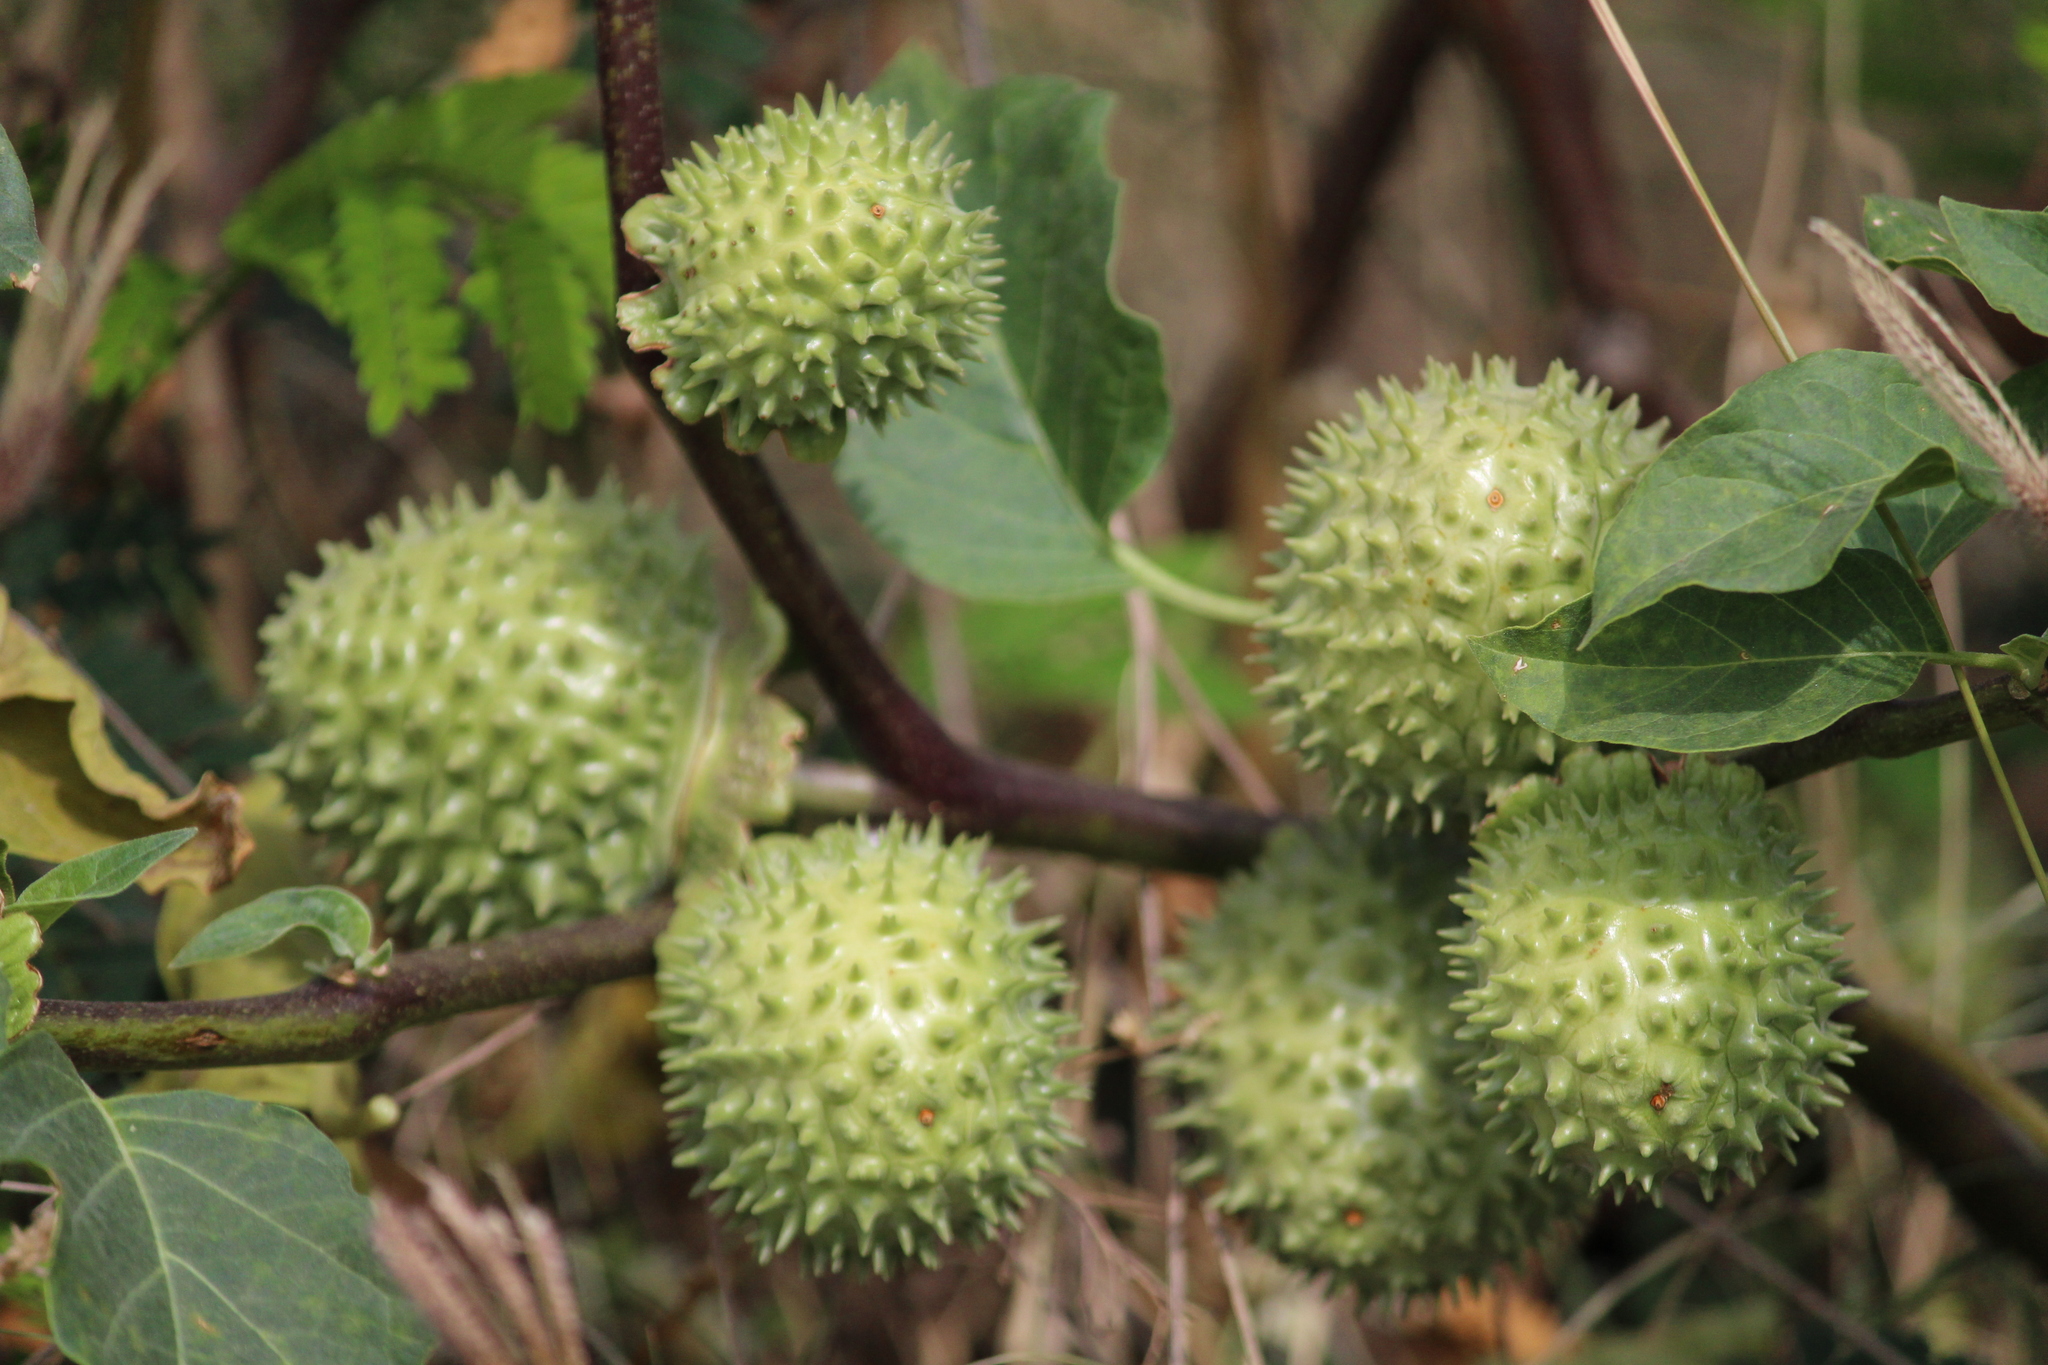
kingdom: Plantae
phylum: Tracheophyta
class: Magnoliopsida
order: Solanales
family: Solanaceae
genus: Datura
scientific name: Datura metel
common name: Jimsonweed
